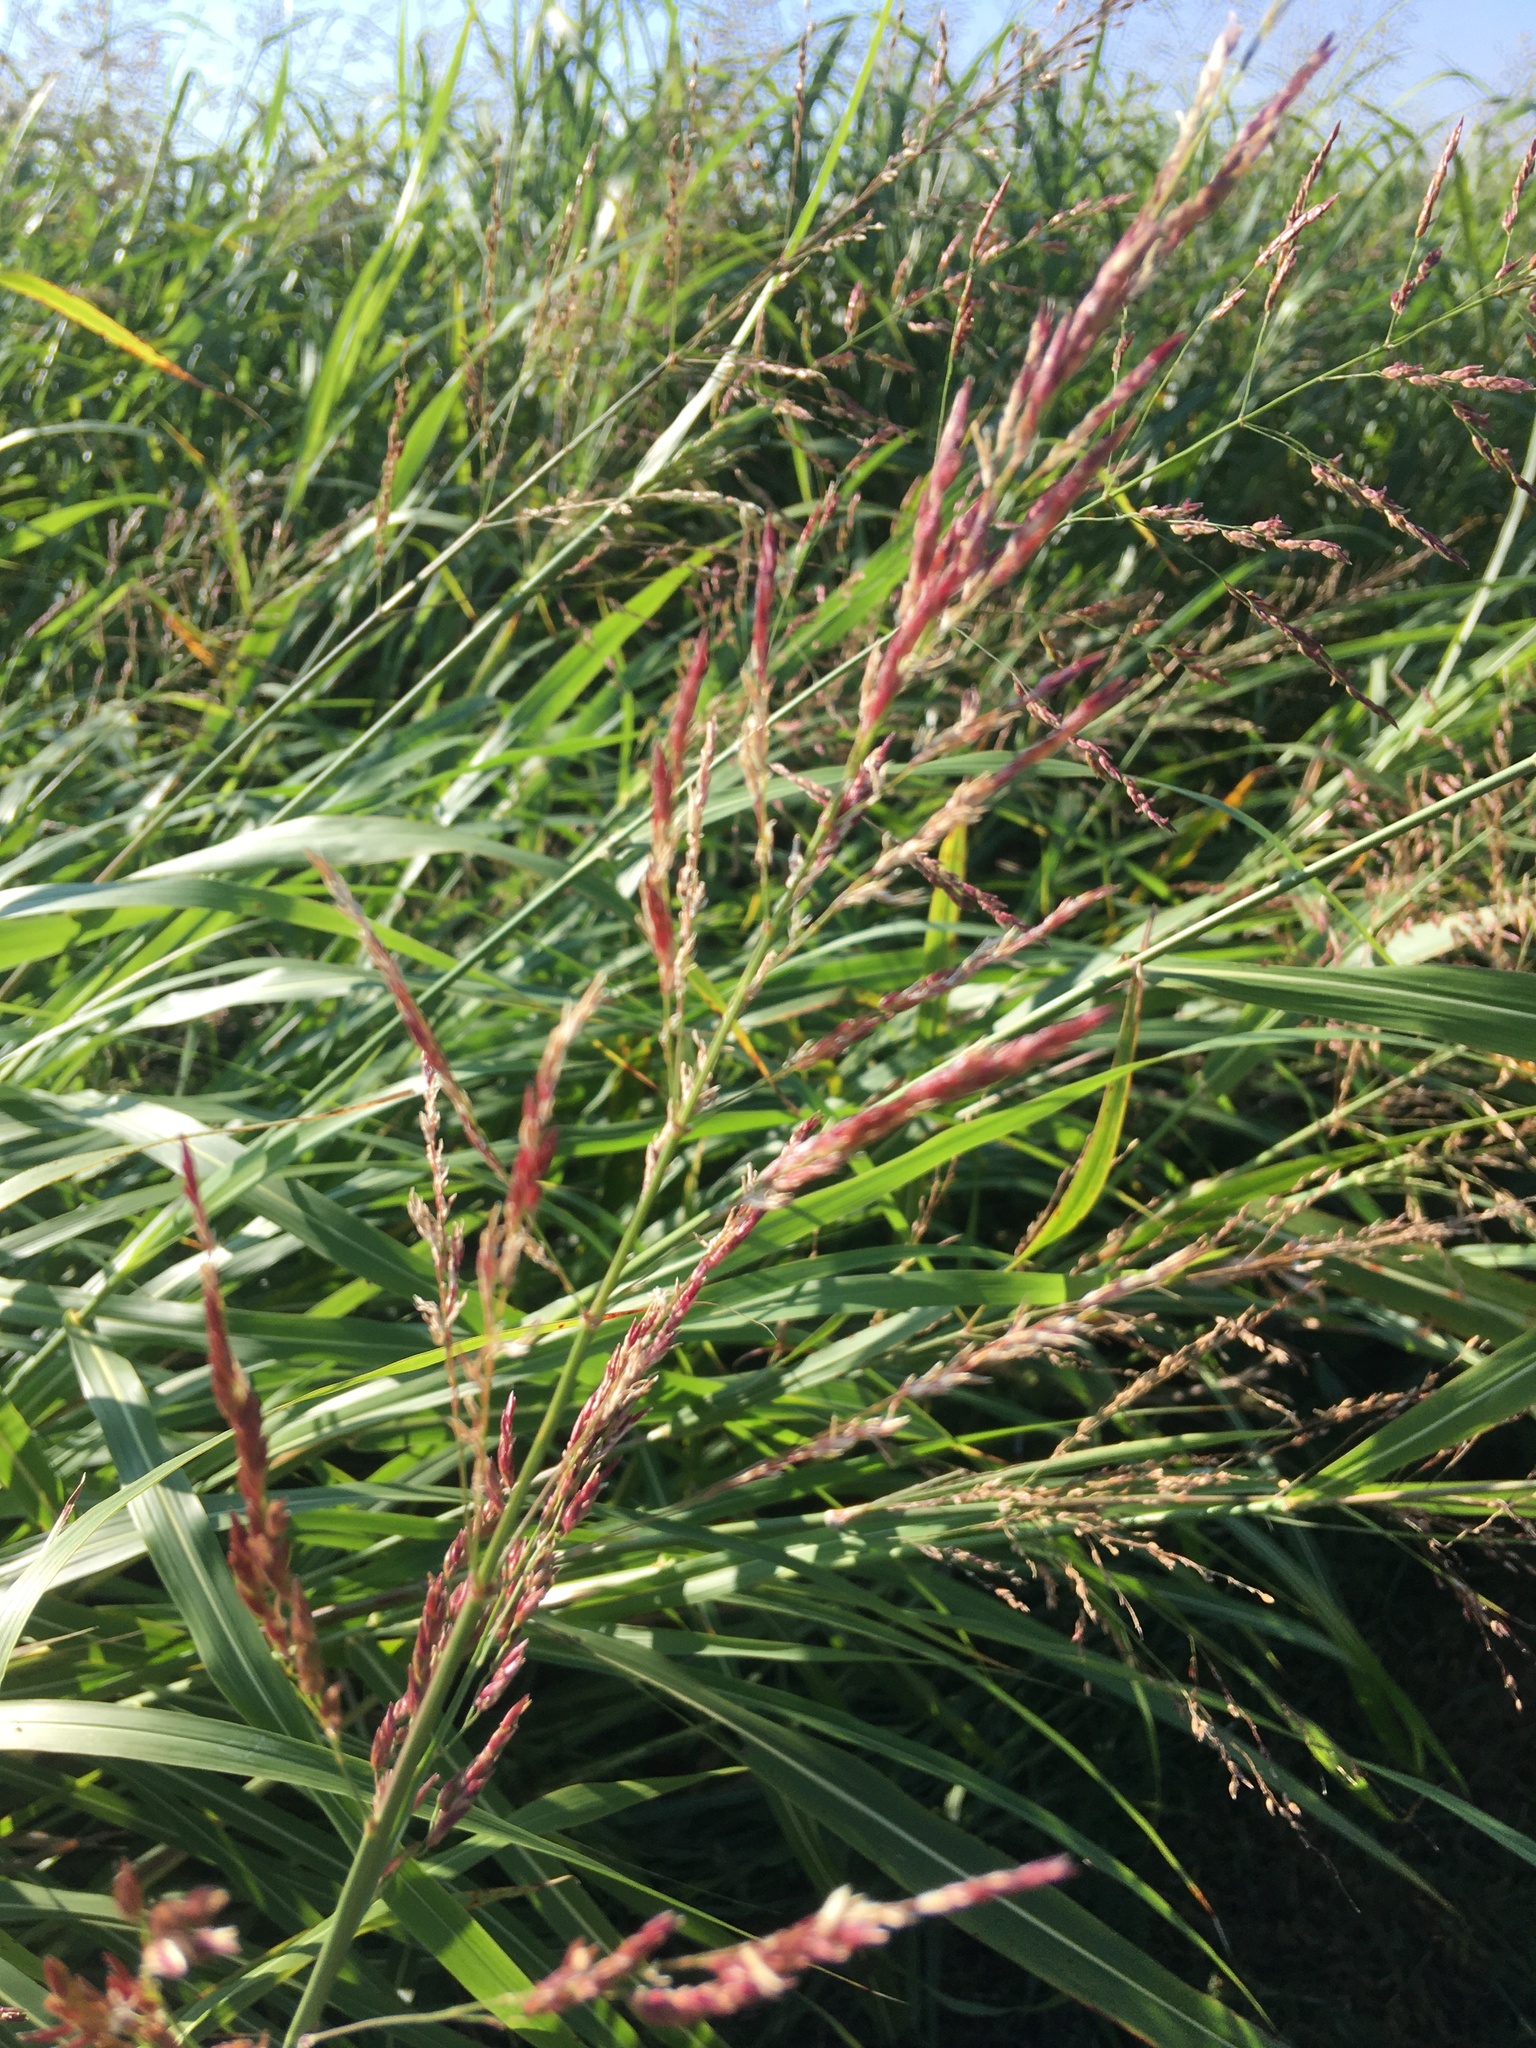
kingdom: Plantae
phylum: Tracheophyta
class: Liliopsida
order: Poales
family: Poaceae
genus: Sorghum
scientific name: Sorghum halepense
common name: Johnson-grass
